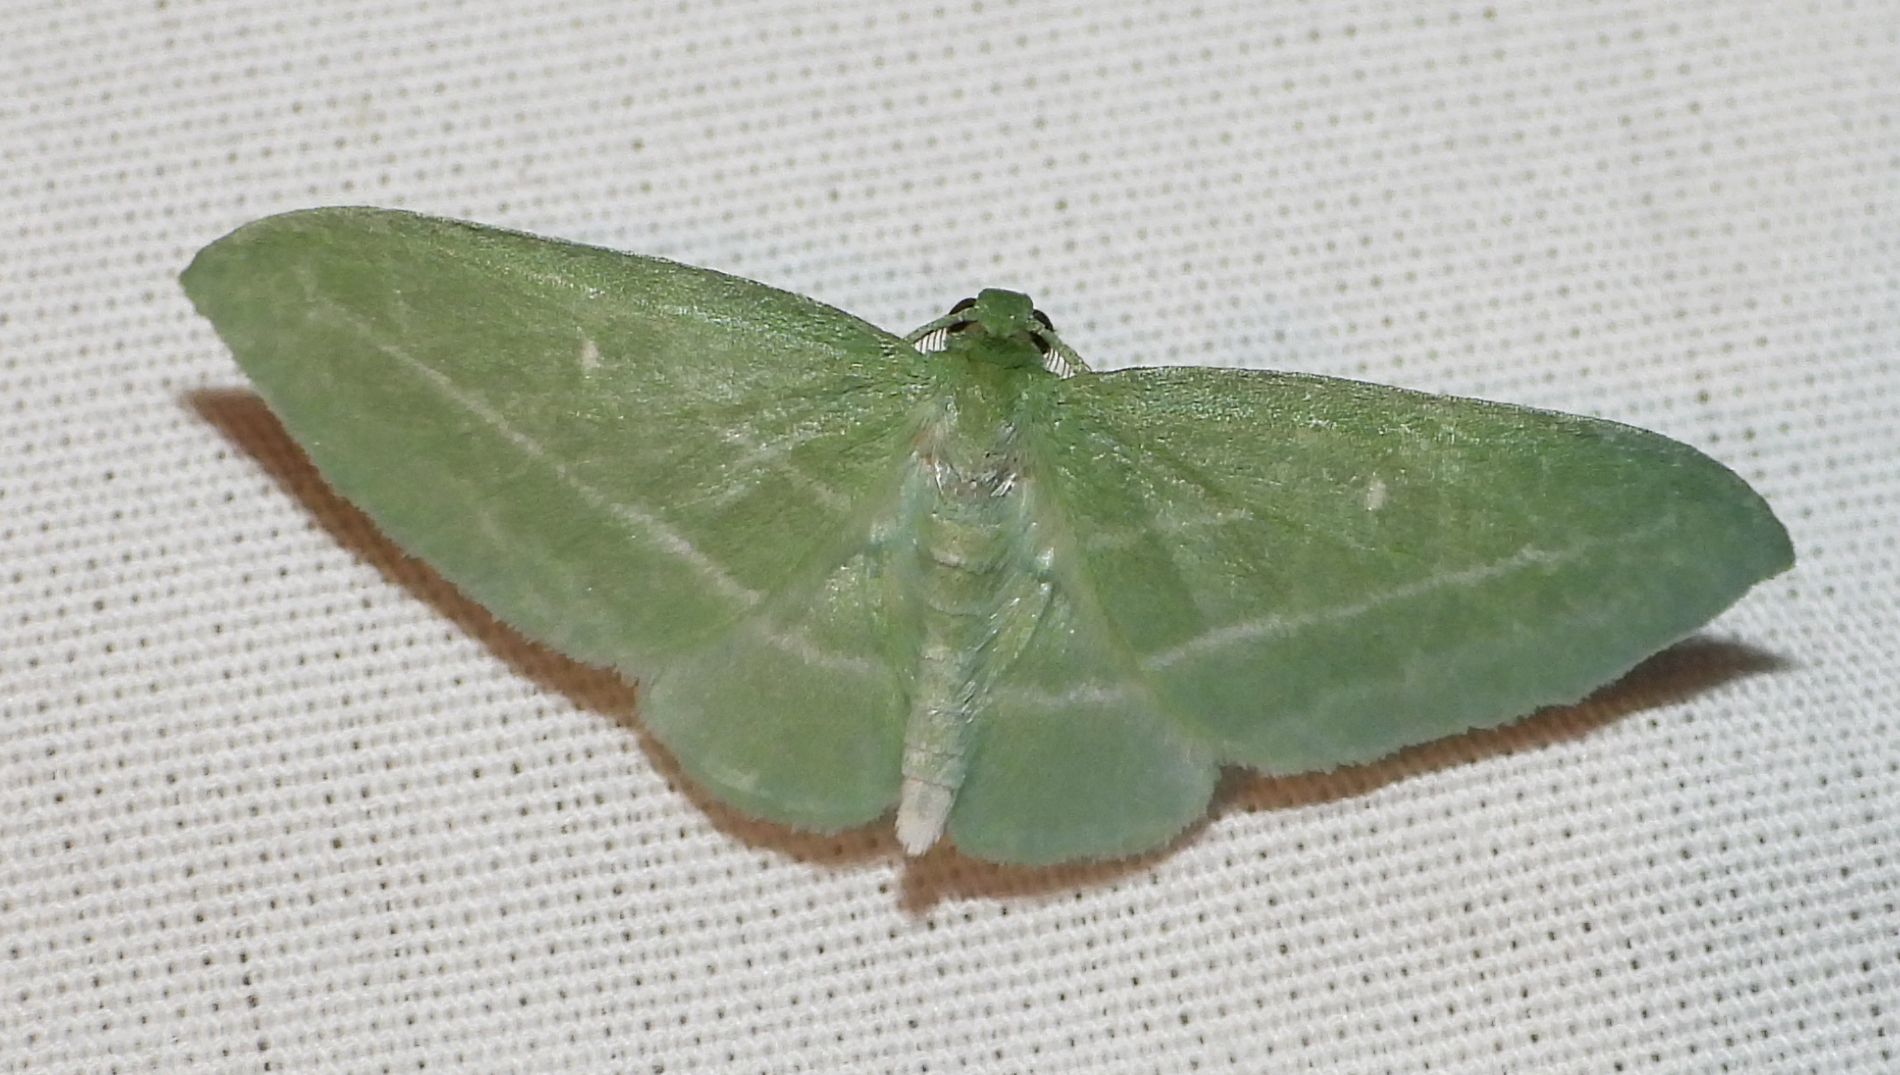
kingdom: Animalia
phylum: Arthropoda
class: Insecta
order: Lepidoptera
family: Geometridae
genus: Dyspteris
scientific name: Dyspteris abortivaria
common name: Bad-wing
